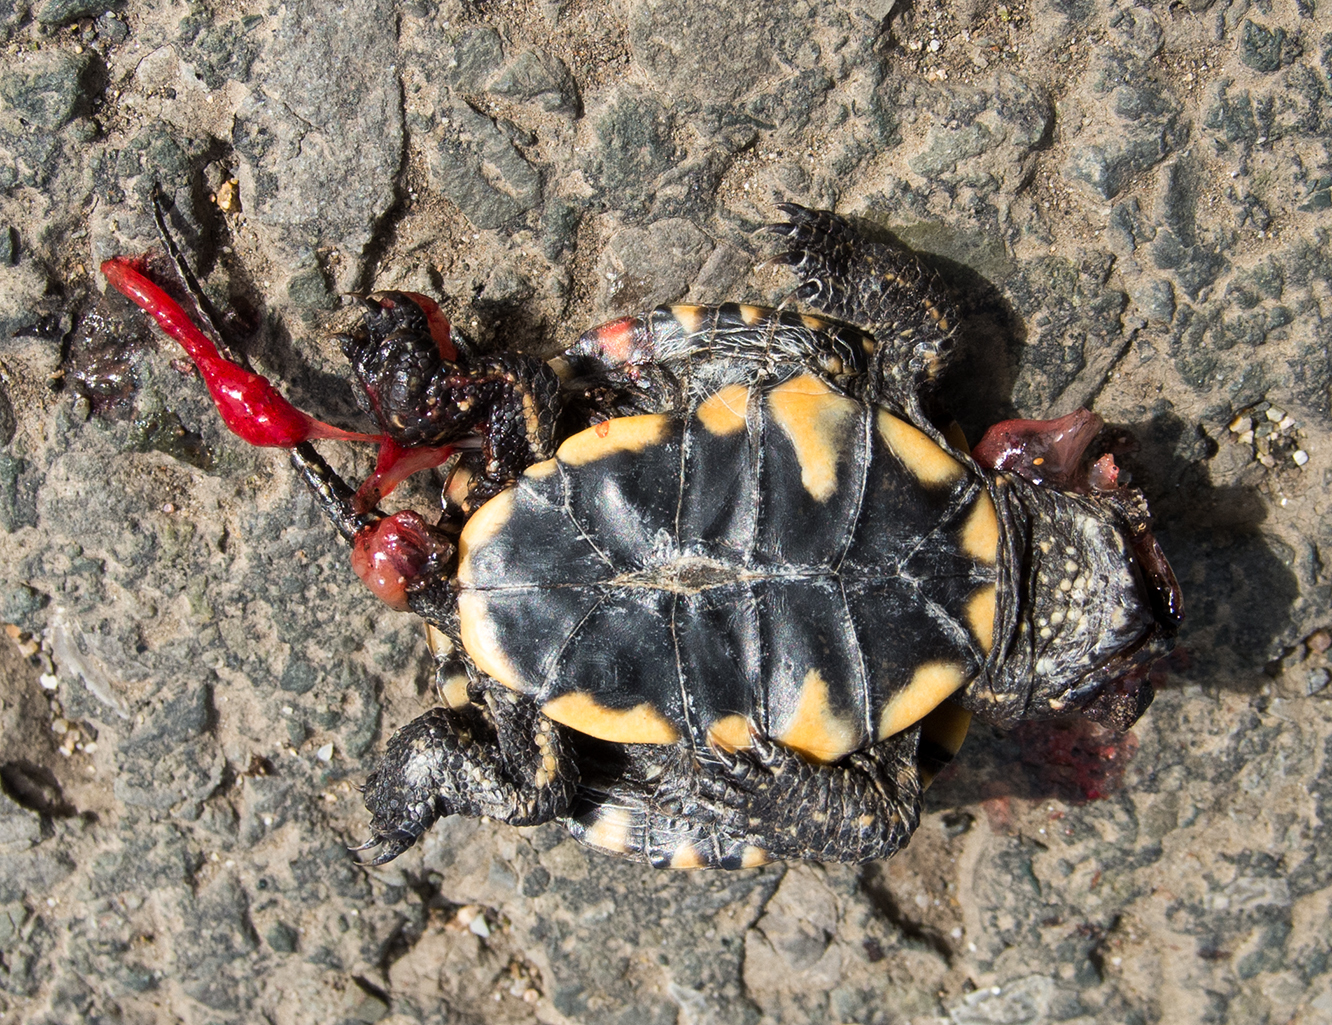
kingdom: Animalia
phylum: Chordata
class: Testudines
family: Emydidae
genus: Emys
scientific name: Emys orbicularis
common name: European pond turtle
